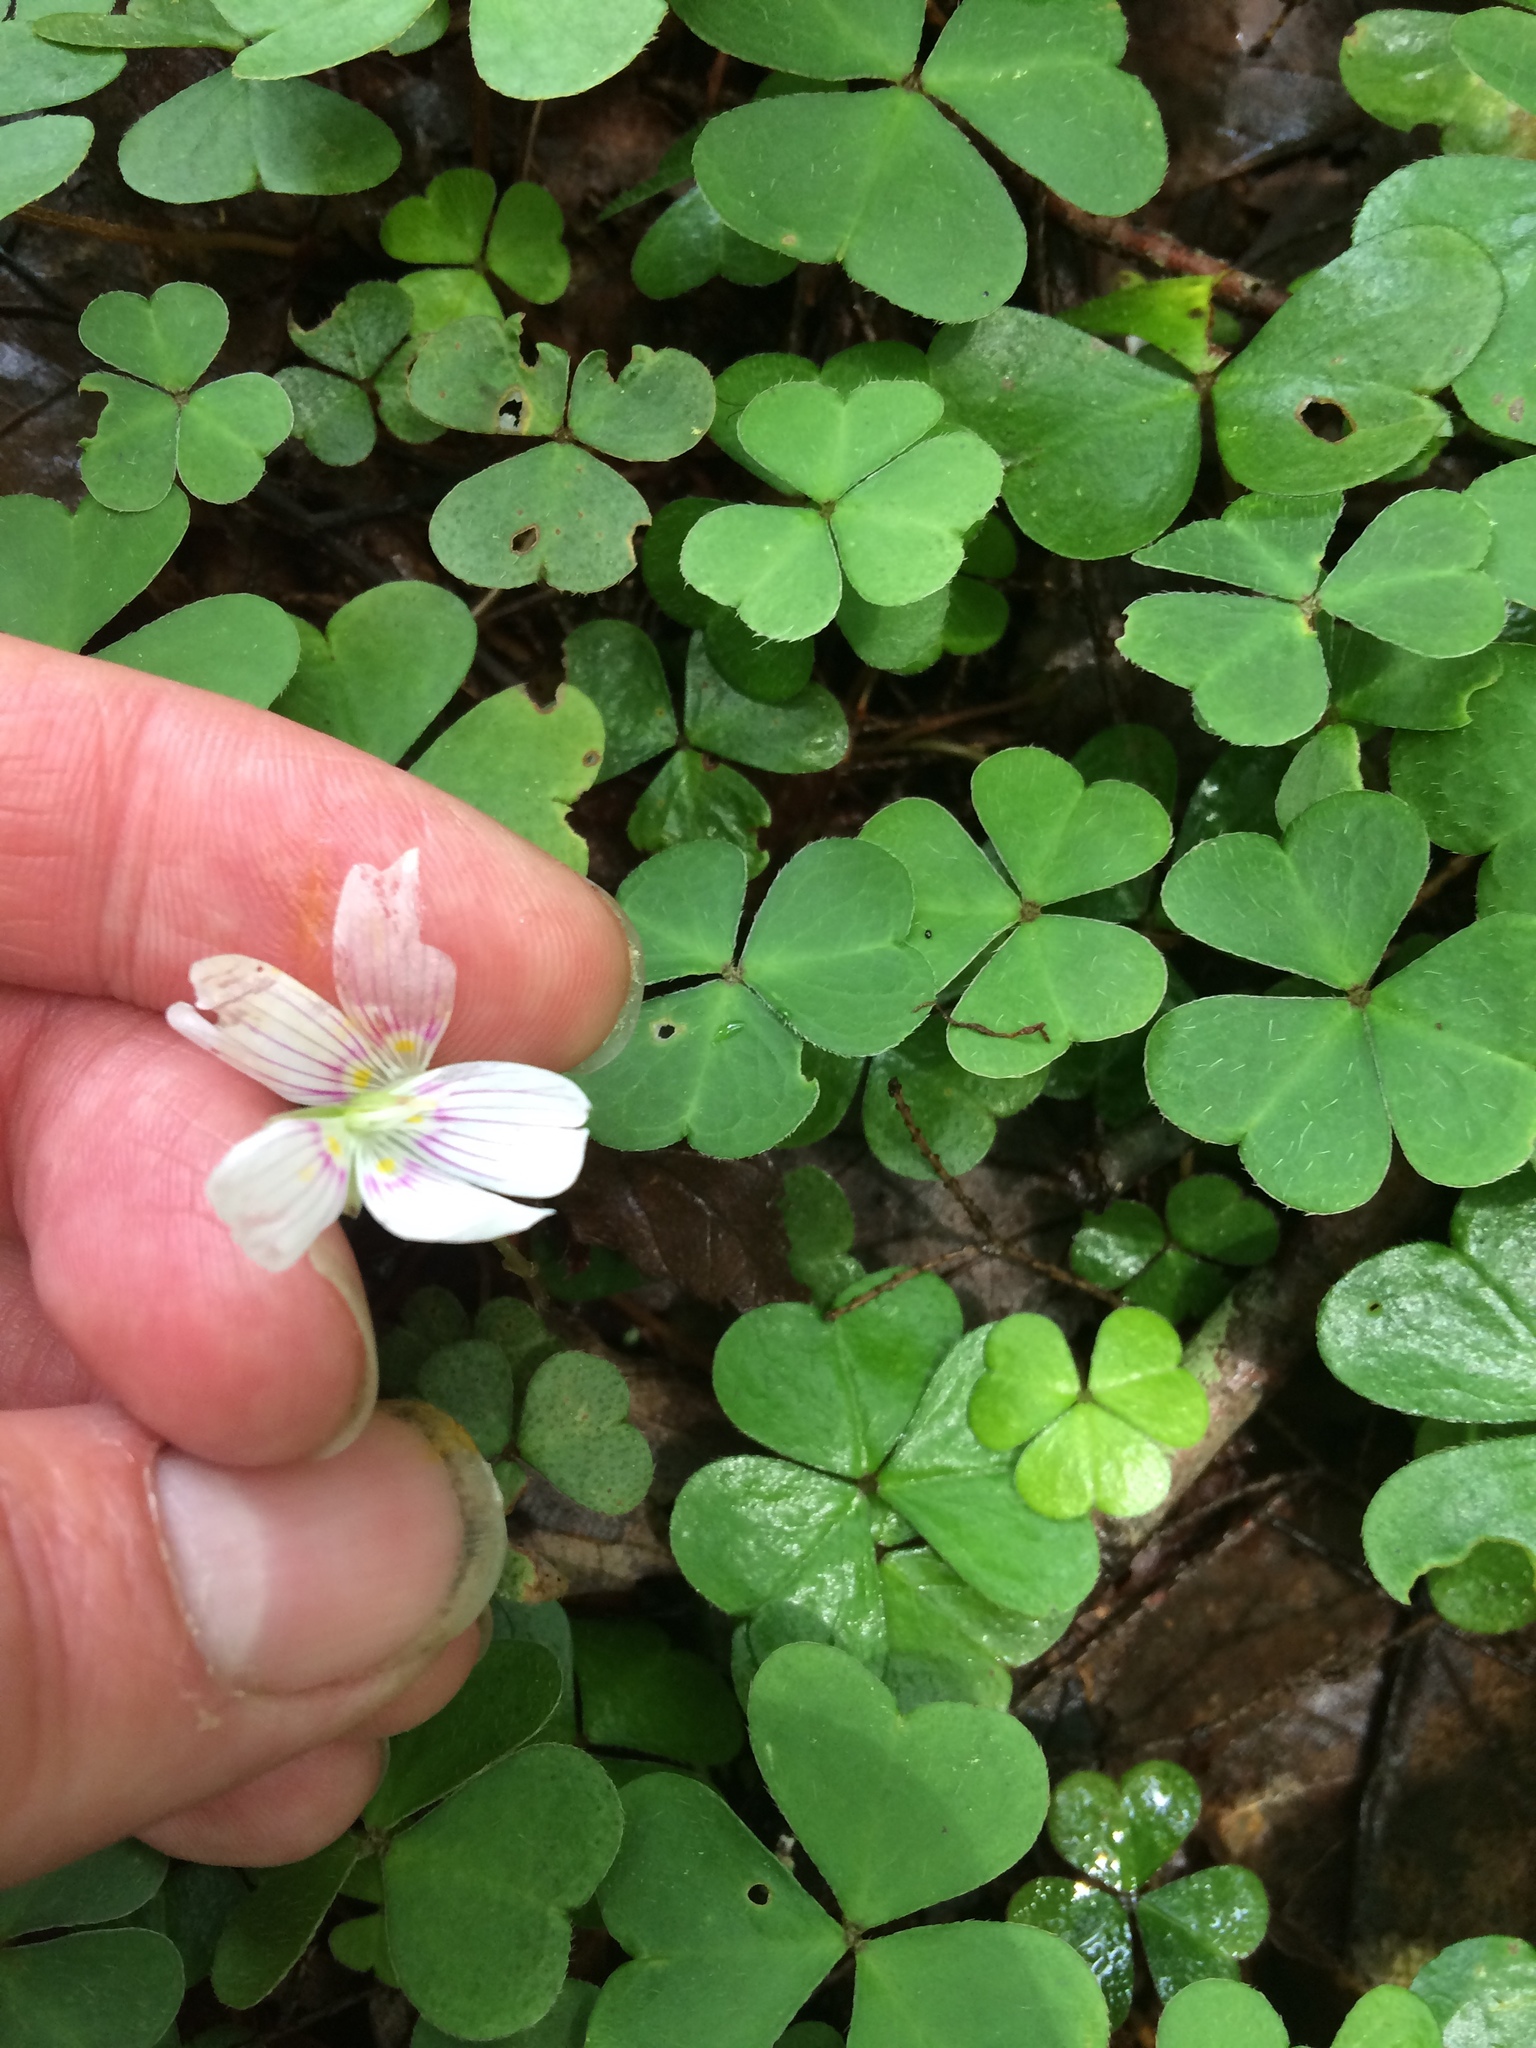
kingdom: Plantae
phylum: Tracheophyta
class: Magnoliopsida
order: Oxalidales
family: Oxalidaceae
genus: Oxalis
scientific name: Oxalis montana
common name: American wood-sorrel
